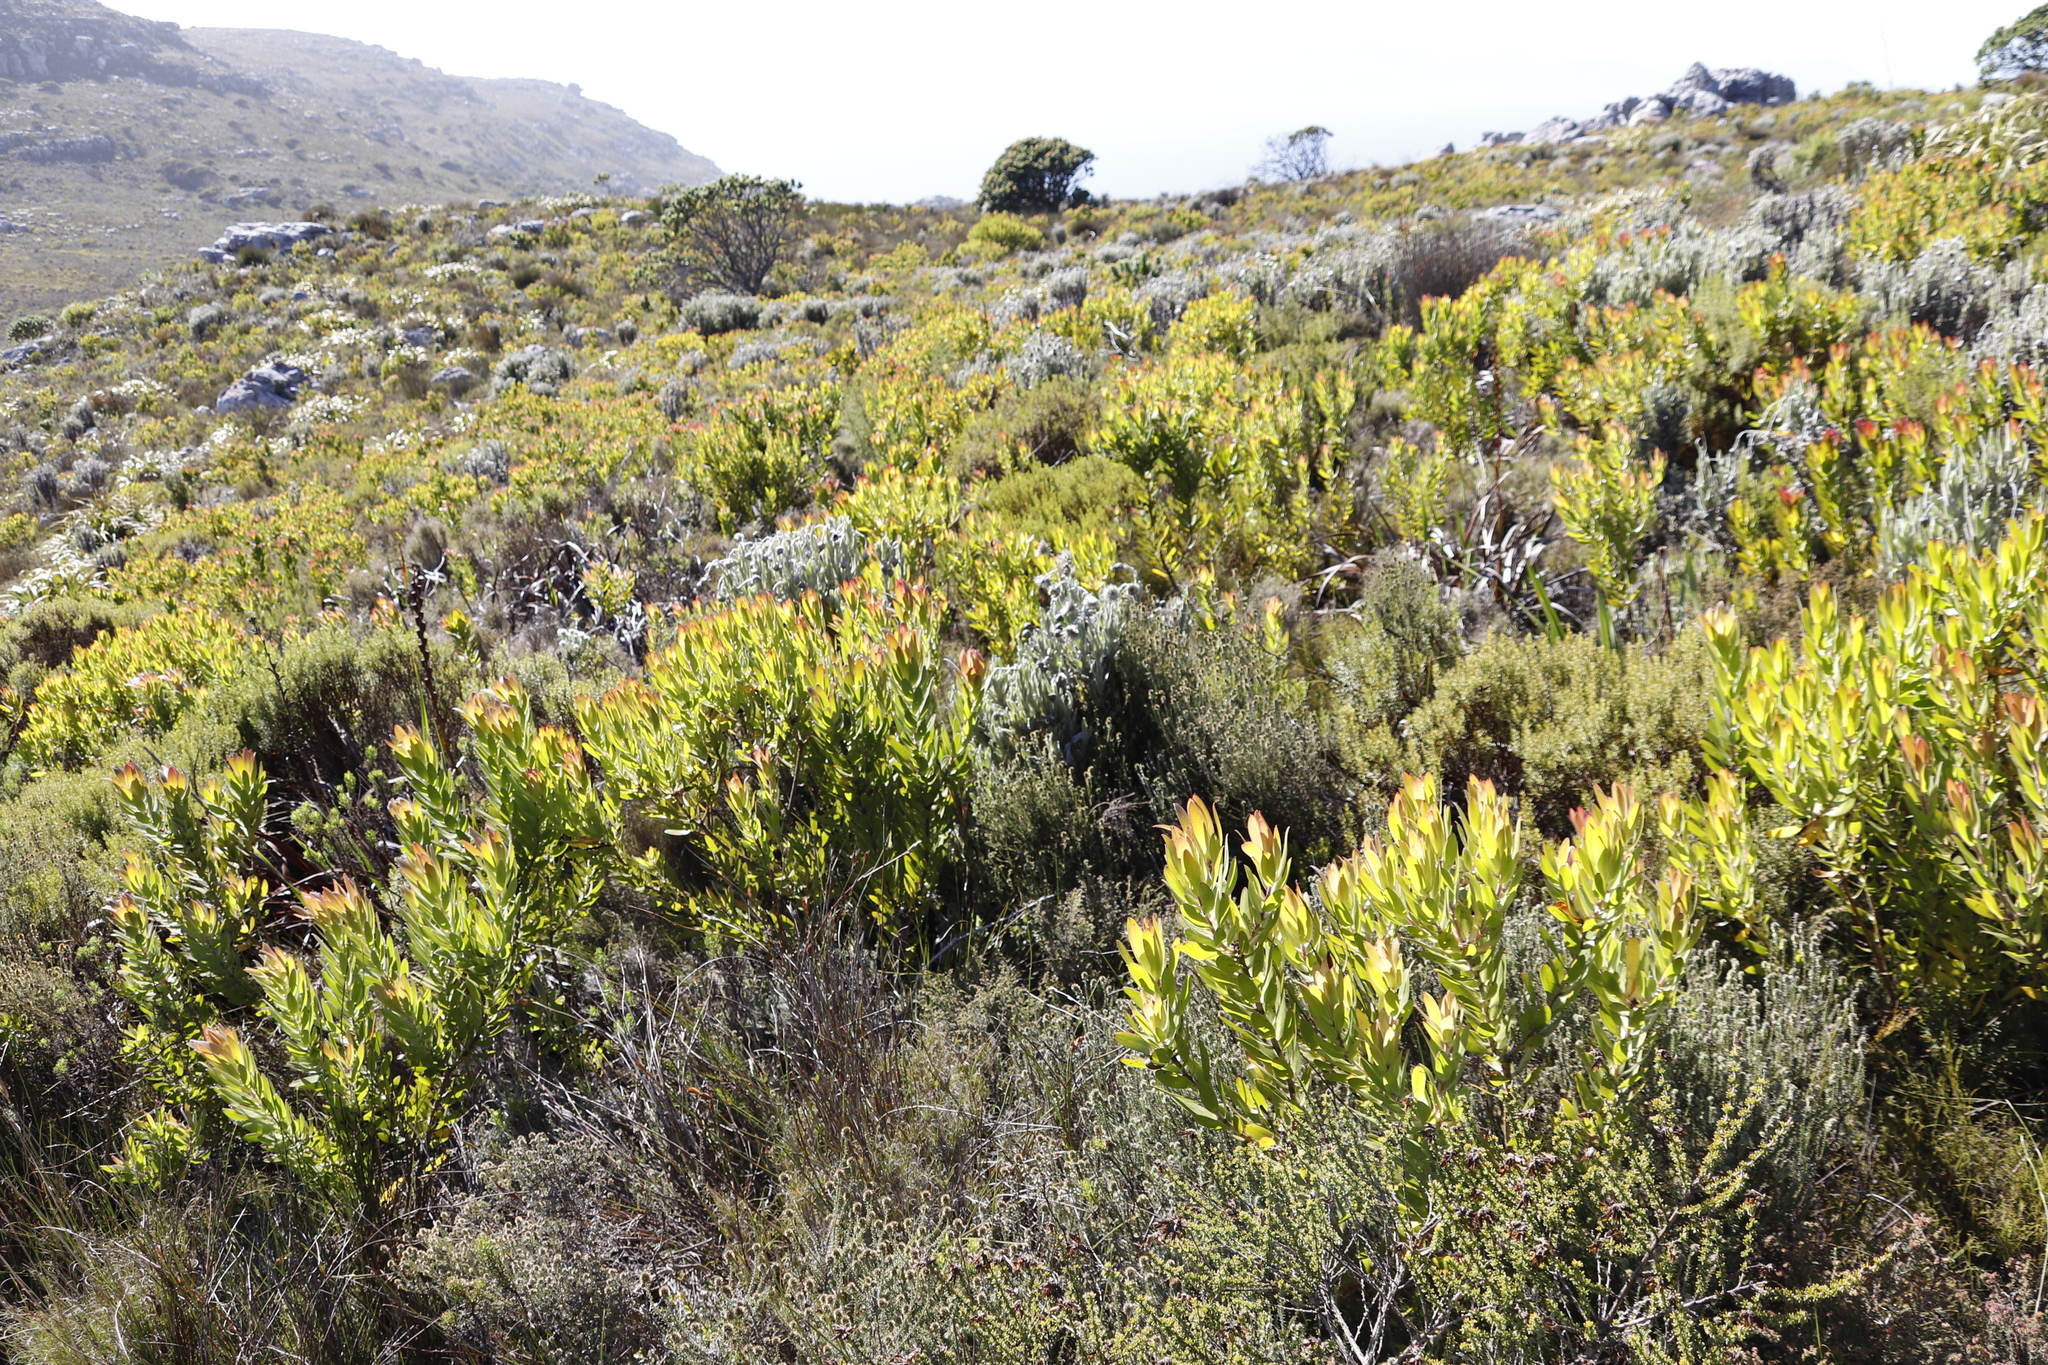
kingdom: Plantae
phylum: Tracheophyta
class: Magnoliopsida
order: Proteales
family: Proteaceae
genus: Leucadendron
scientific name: Leucadendron laureolum
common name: Golden sunshinebush
